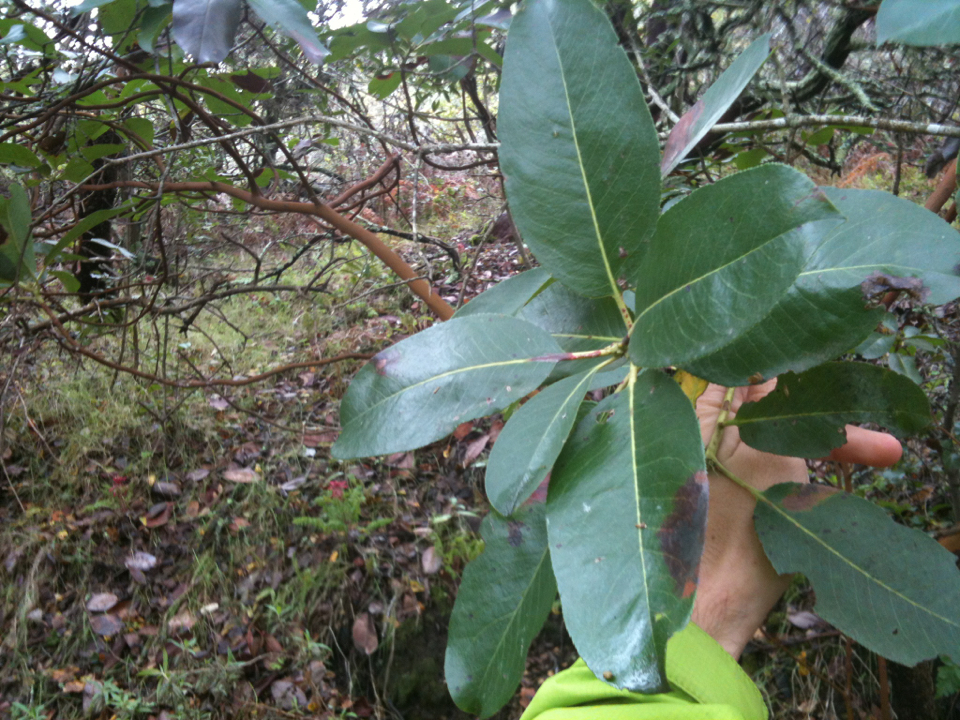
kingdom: Plantae
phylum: Tracheophyta
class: Magnoliopsida
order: Ericales
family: Ericaceae
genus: Arbutus
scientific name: Arbutus menziesii
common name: Pacific madrone
